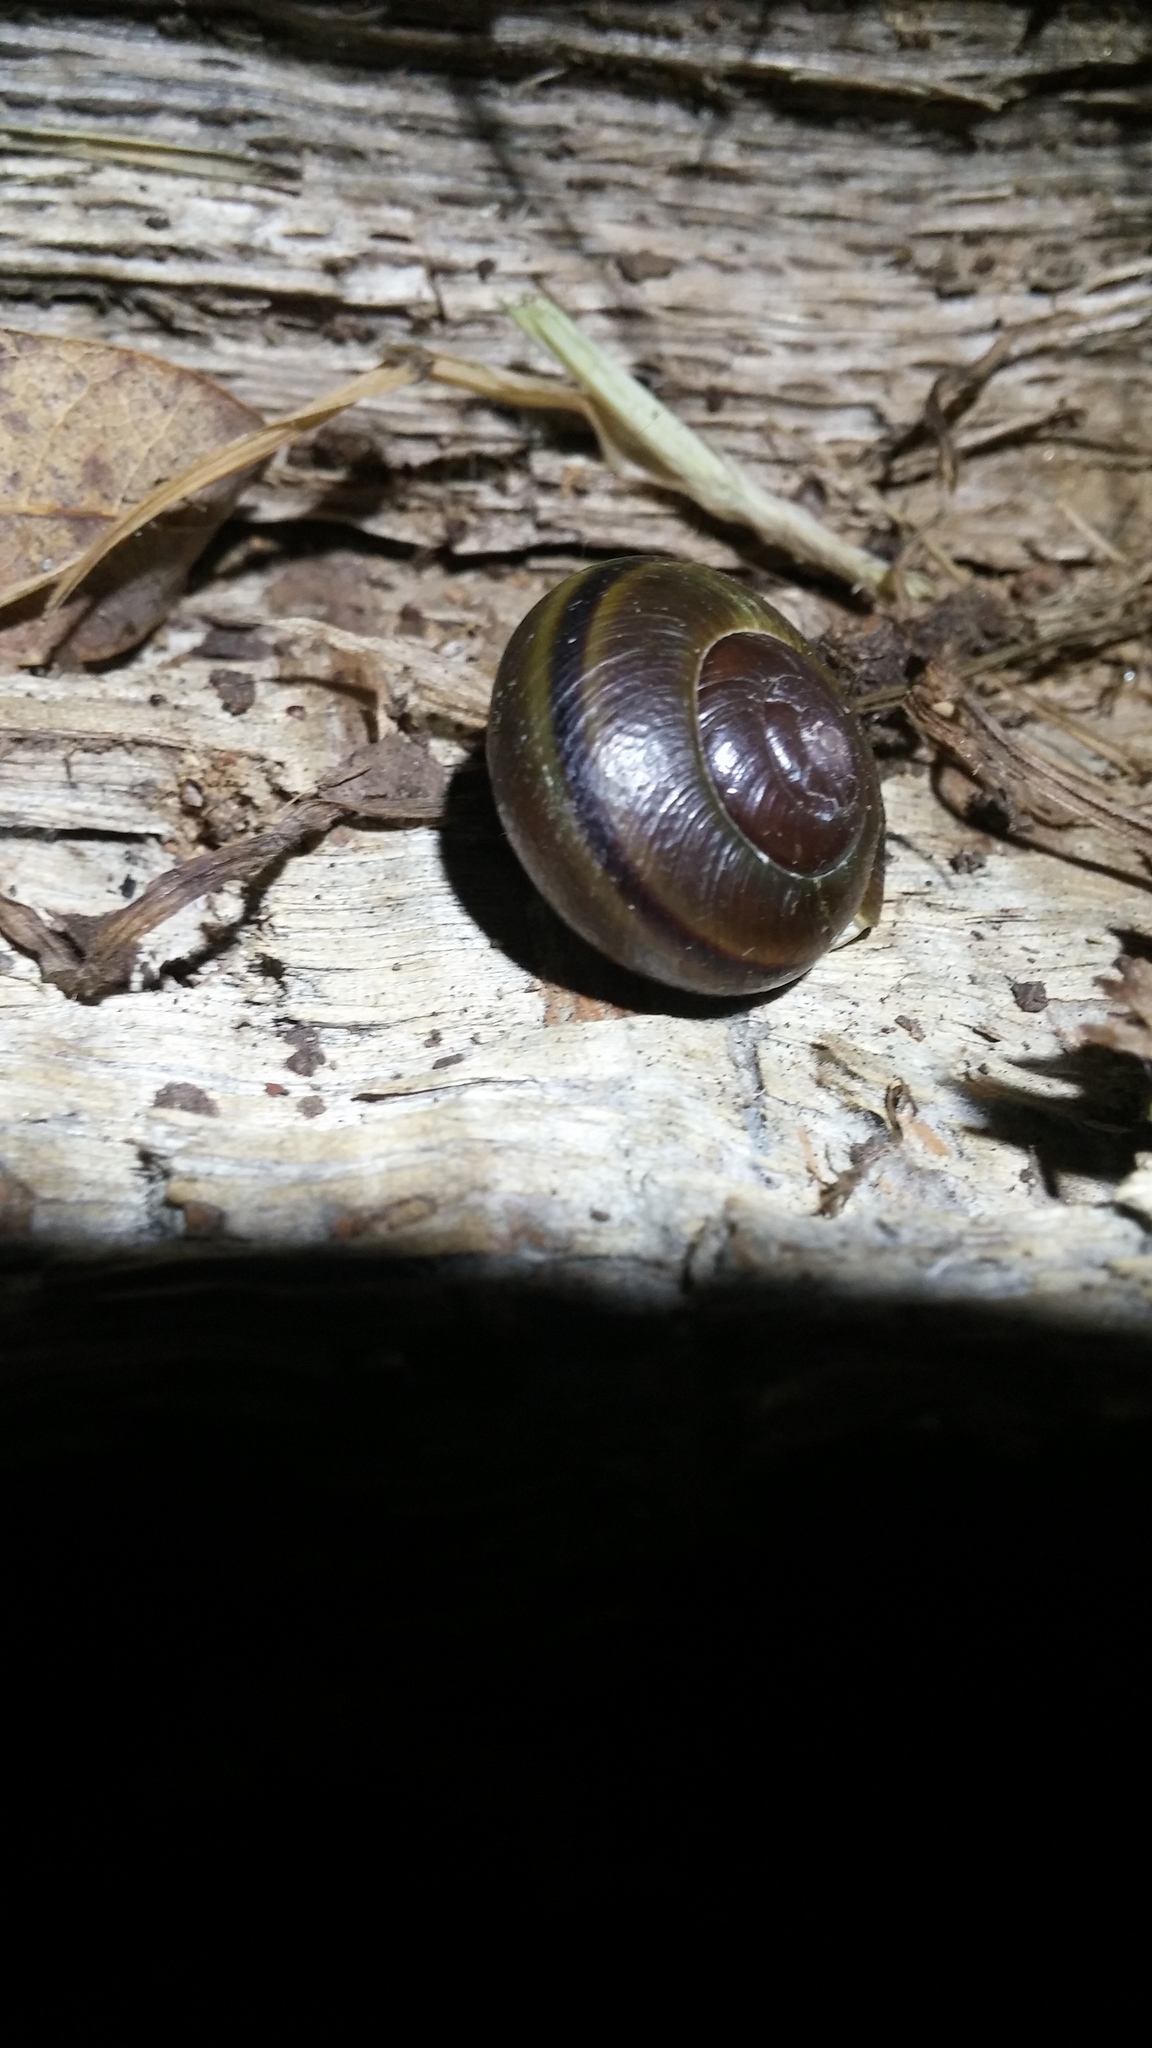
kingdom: Animalia
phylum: Mollusca
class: Gastropoda
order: Stylommatophora
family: Xanthonychidae
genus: Helminthoglypta
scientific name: Helminthoglypta tudiculata
